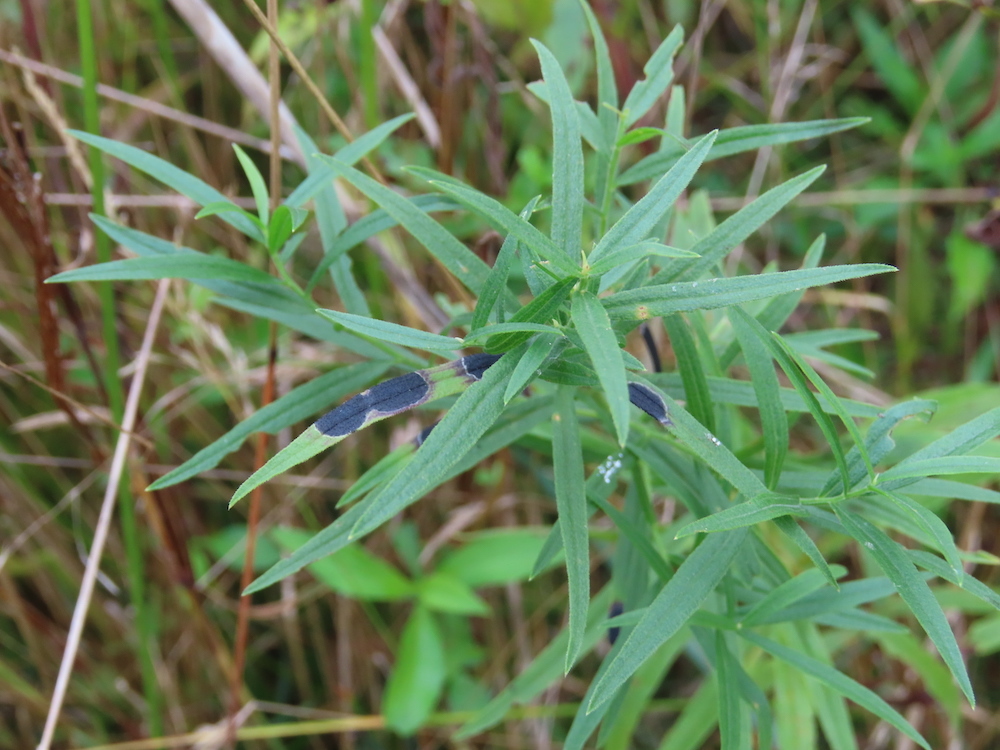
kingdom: Animalia
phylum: Arthropoda
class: Insecta
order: Diptera
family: Cecidomyiidae
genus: Asteromyia
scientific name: Asteromyia euthamiae
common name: Euthamia leaf gall midge
